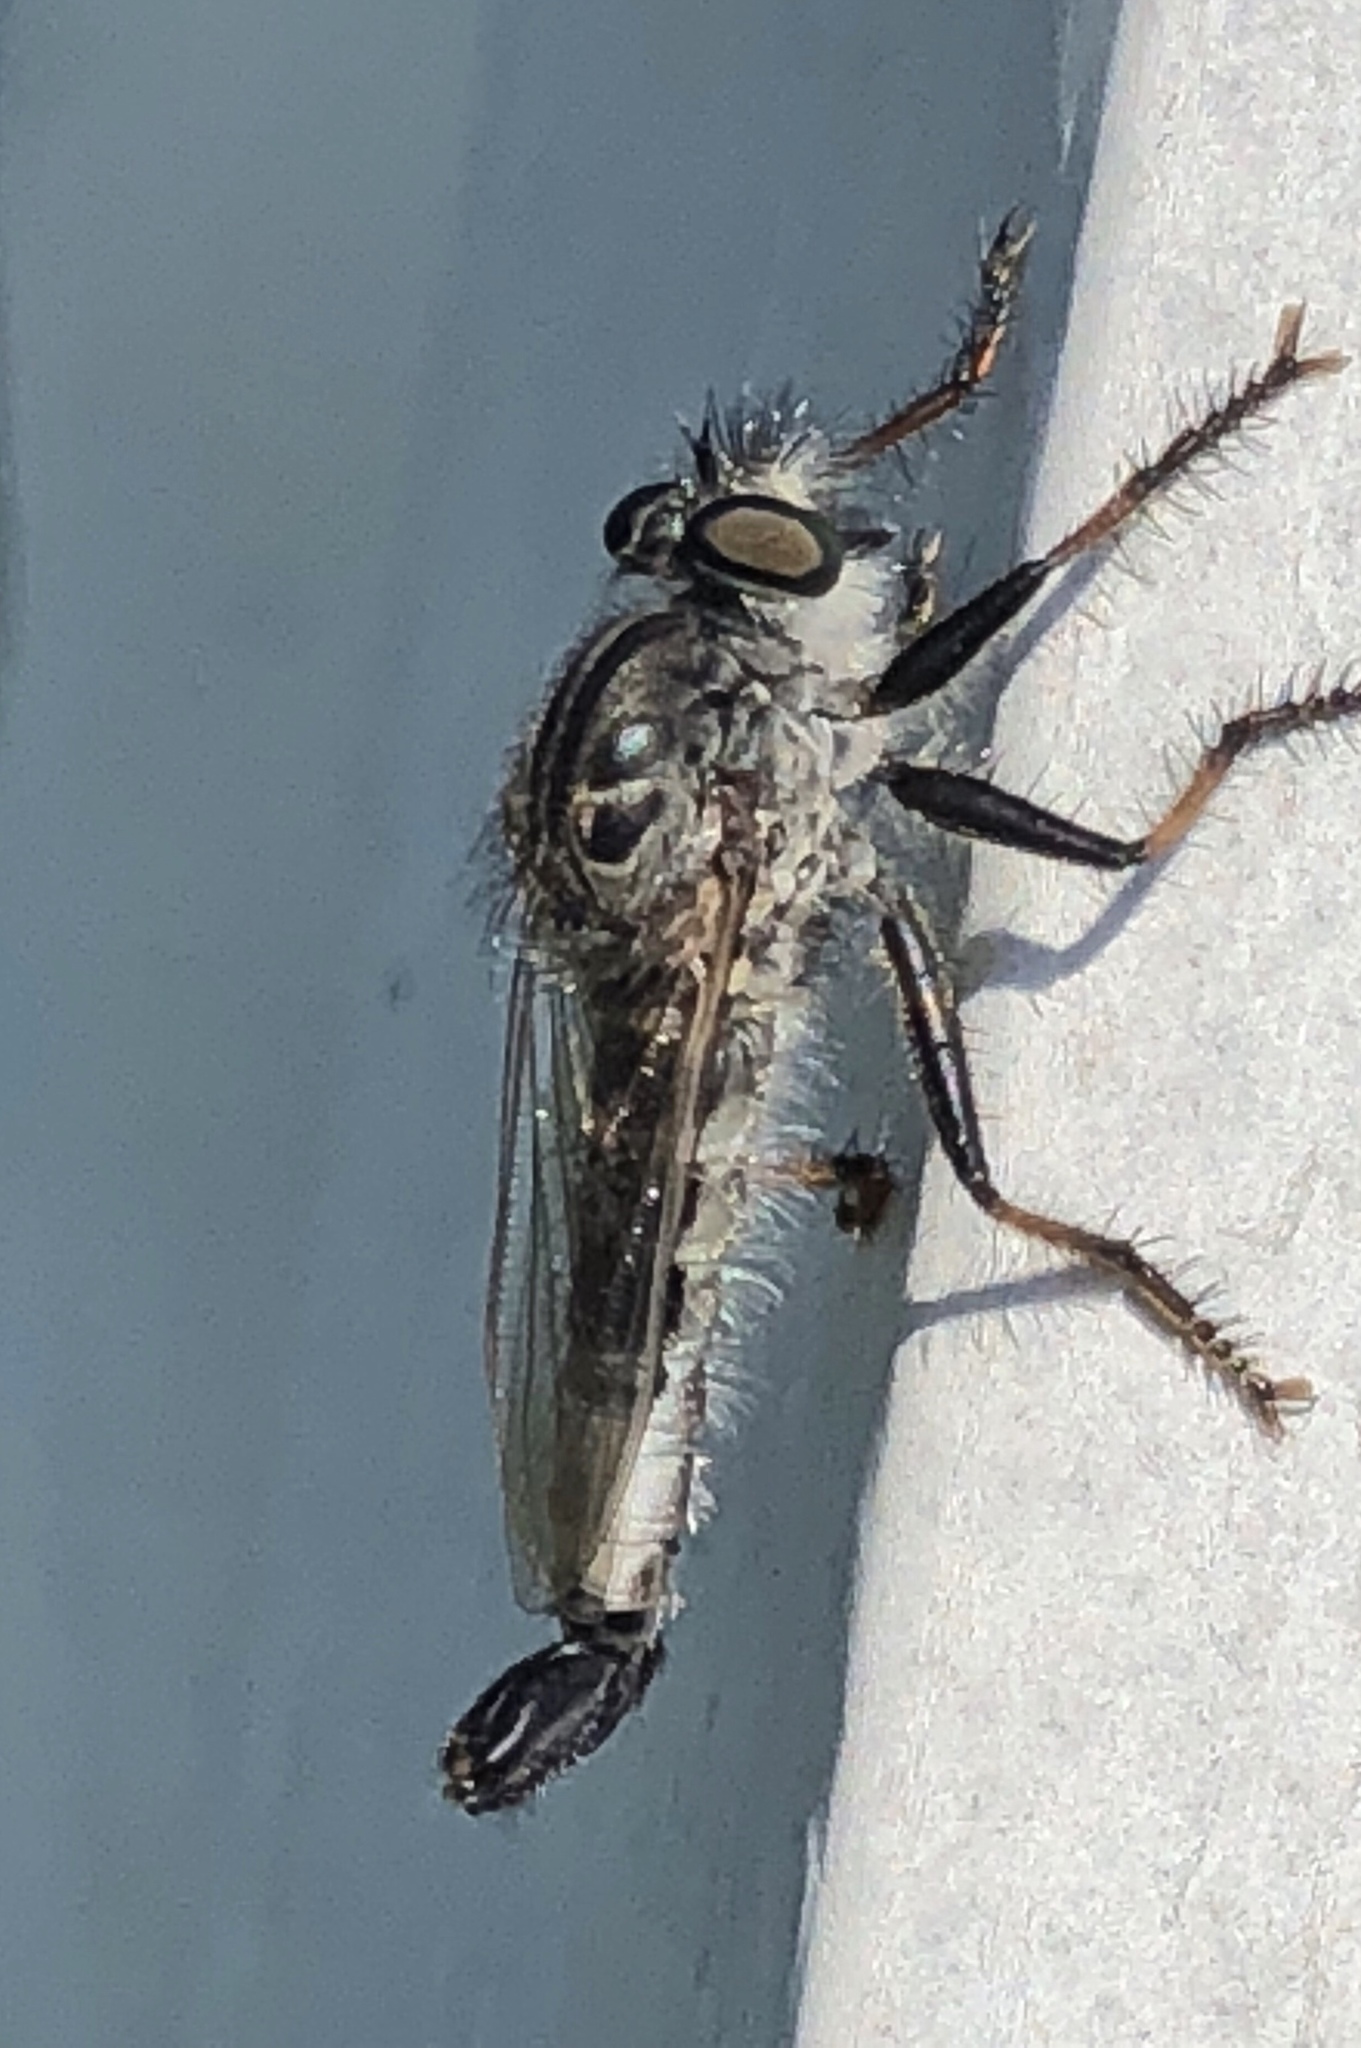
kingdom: Animalia
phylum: Arthropoda
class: Insecta
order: Diptera
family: Asilidae
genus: Efferia
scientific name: Efferia aestuans
